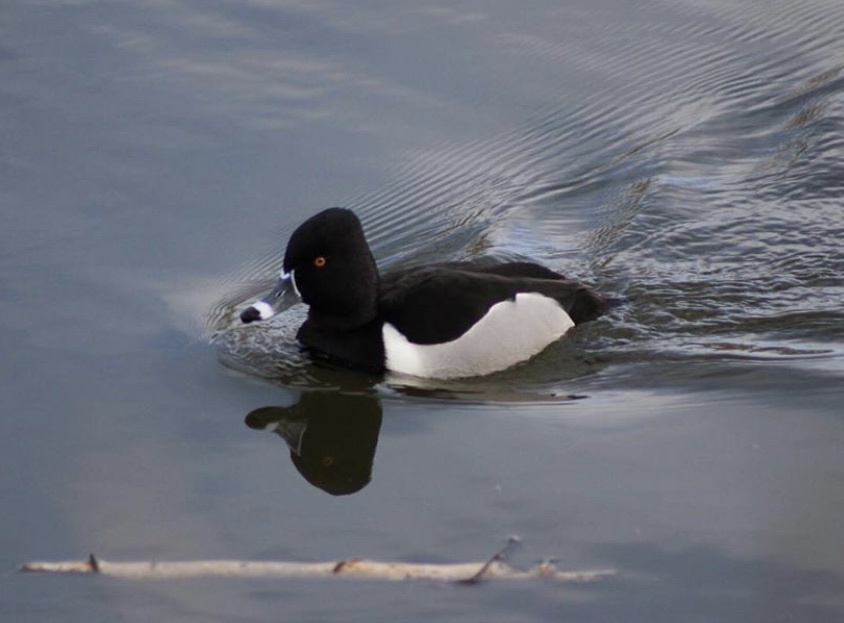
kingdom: Animalia
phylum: Chordata
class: Aves
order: Anseriformes
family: Anatidae
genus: Aythya
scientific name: Aythya collaris
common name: Ring-necked duck
